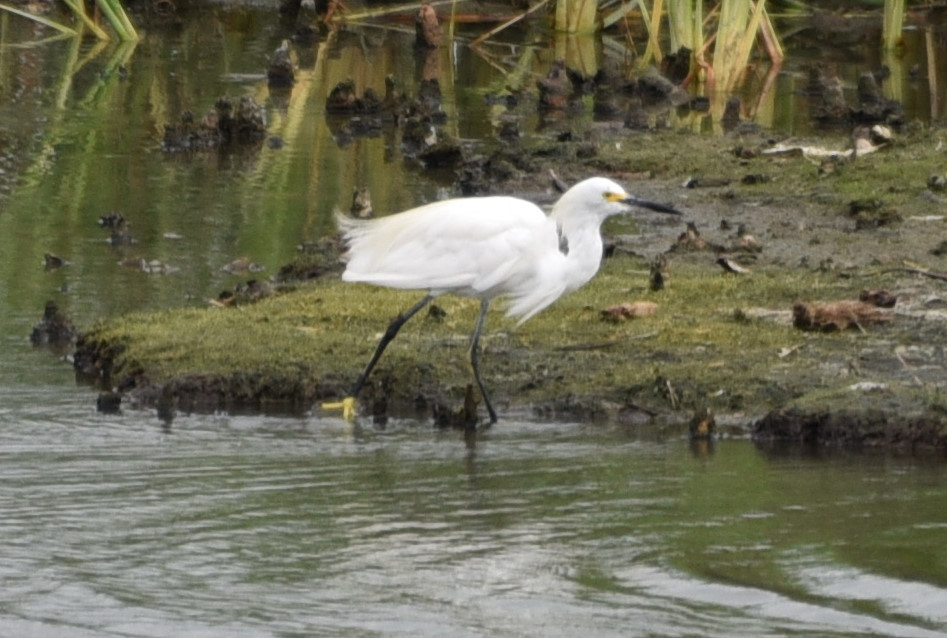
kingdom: Animalia
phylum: Chordata
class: Aves
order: Pelecaniformes
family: Ardeidae
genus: Egretta
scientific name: Egretta thula
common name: Snowy egret
